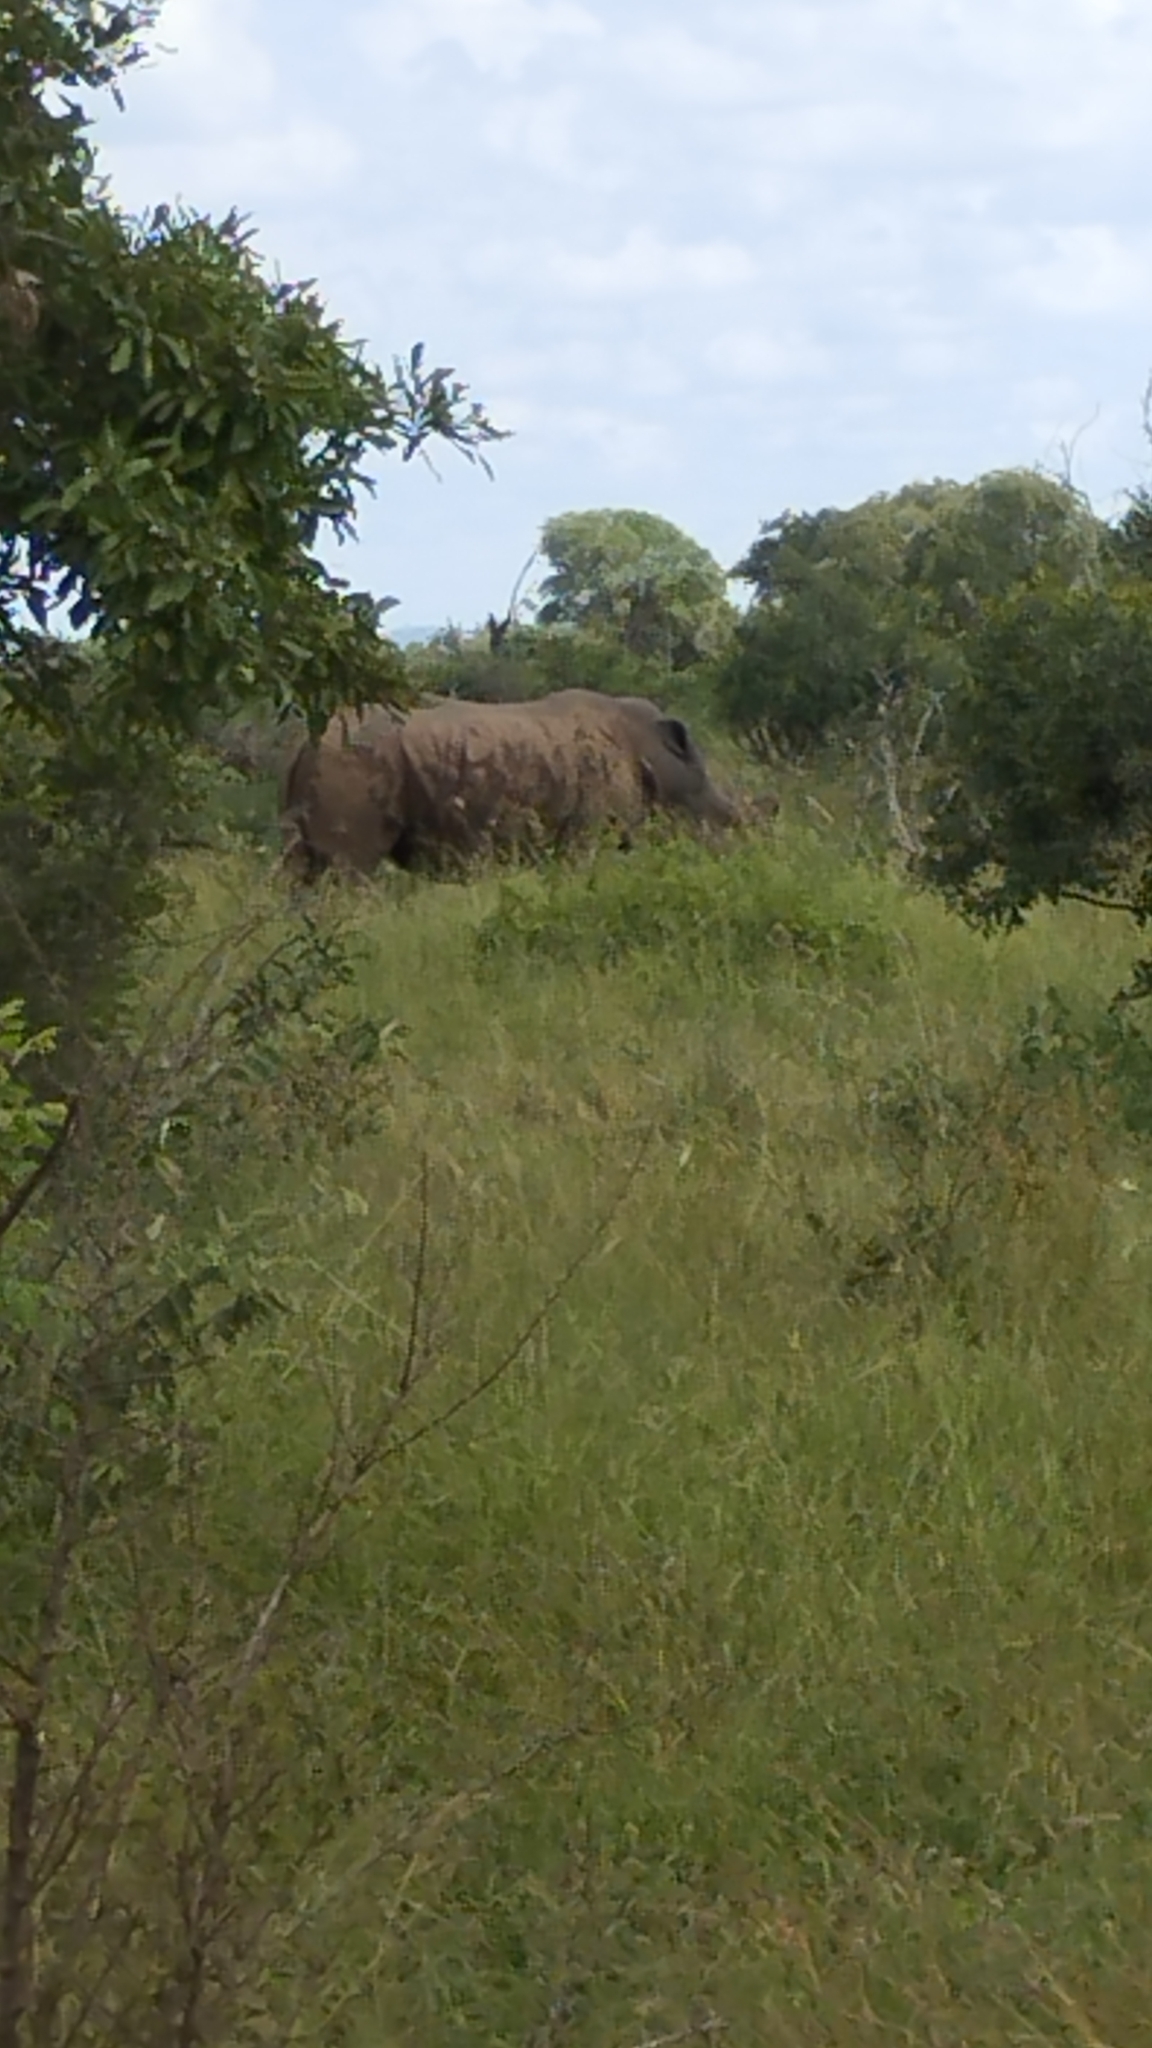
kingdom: Animalia
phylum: Chordata
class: Mammalia
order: Perissodactyla
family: Rhinocerotidae
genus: Ceratotherium
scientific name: Ceratotherium simum
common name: White rhinoceros
